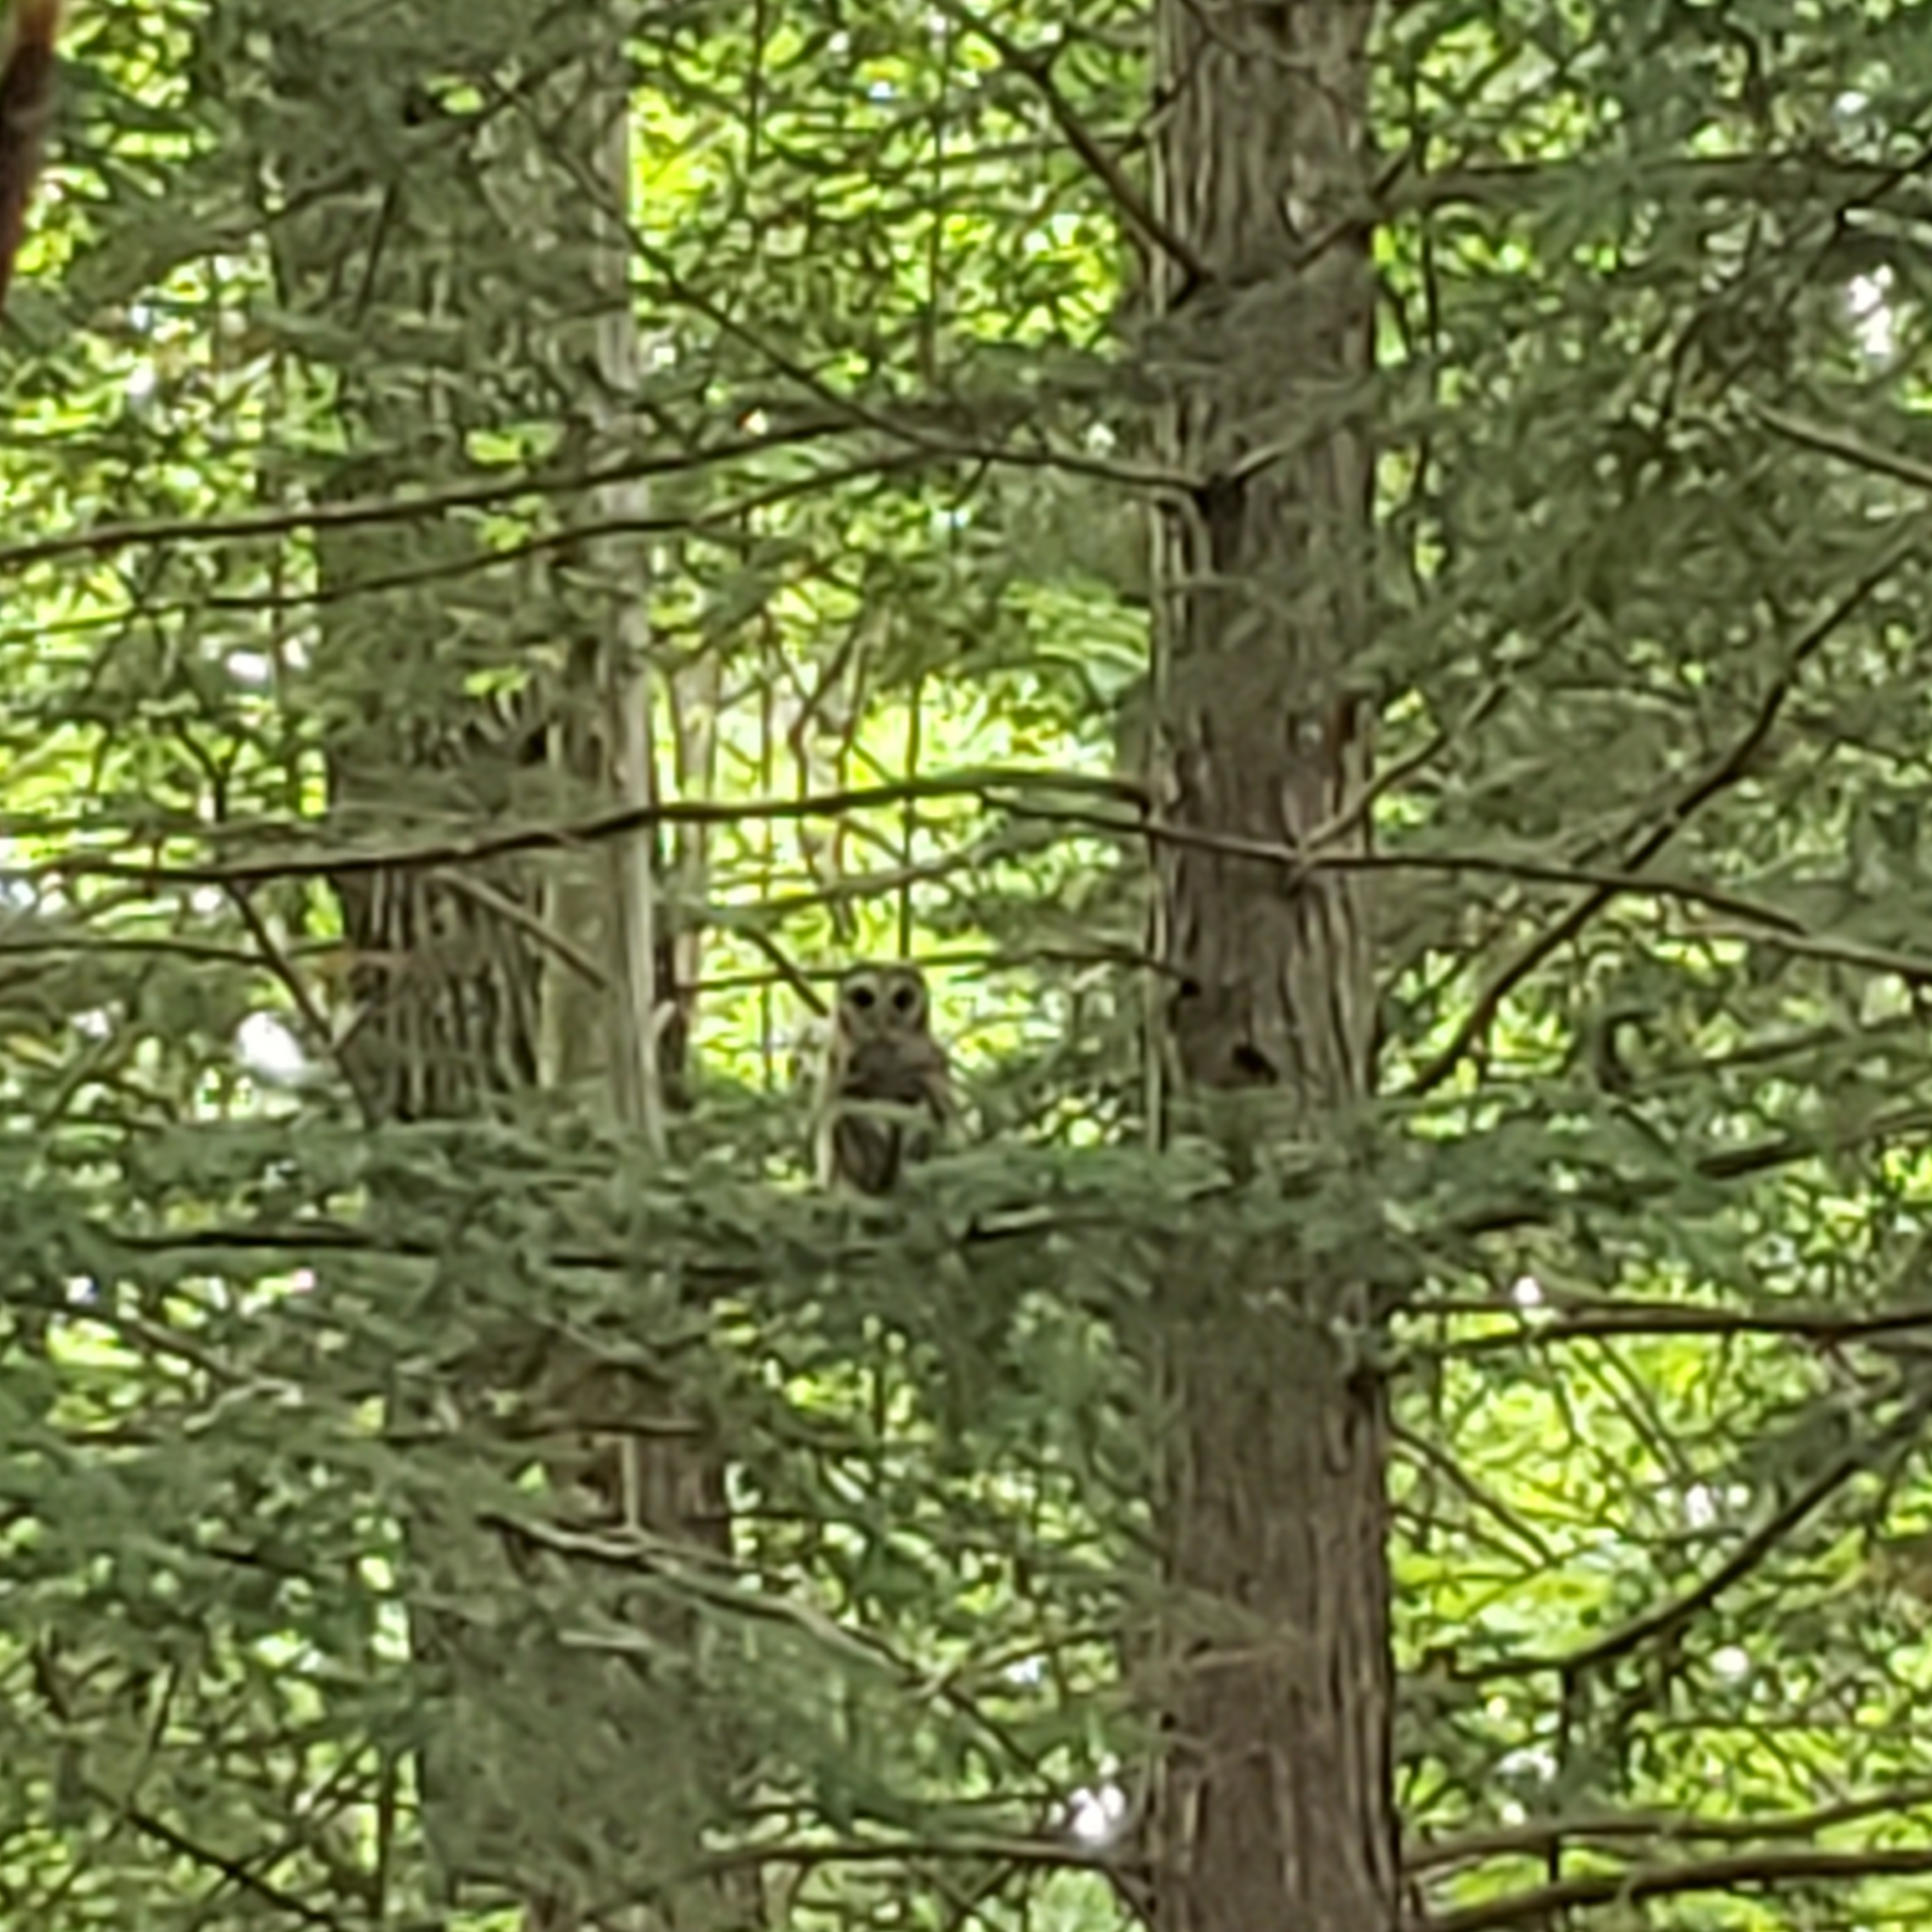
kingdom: Animalia
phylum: Chordata
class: Aves
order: Strigiformes
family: Strigidae
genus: Strix
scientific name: Strix varia
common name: Barred owl
